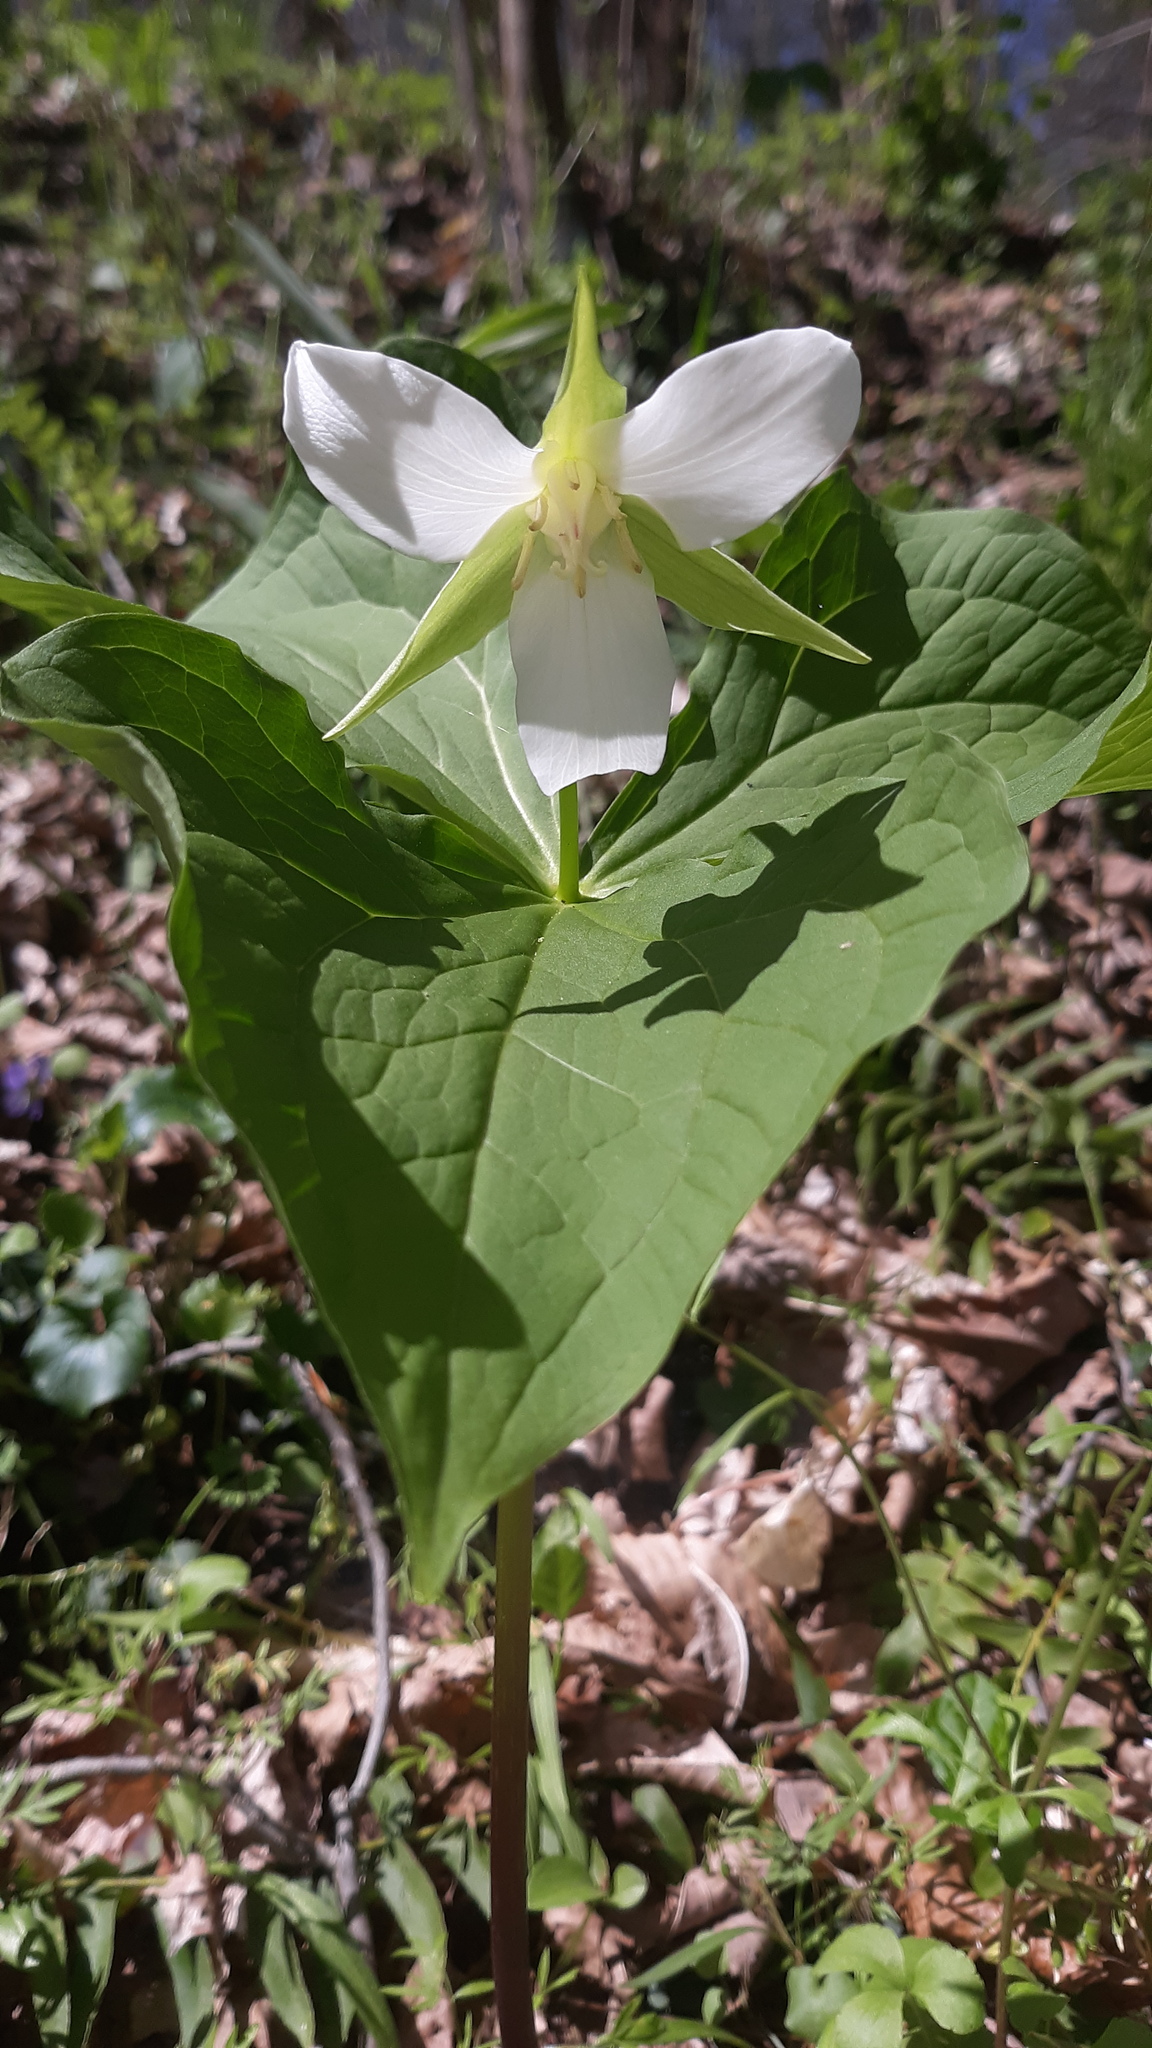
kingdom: Plantae
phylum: Tracheophyta
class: Liliopsida
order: Liliales
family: Melanthiaceae
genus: Trillium
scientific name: Trillium flexipes
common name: Drooping trillium
